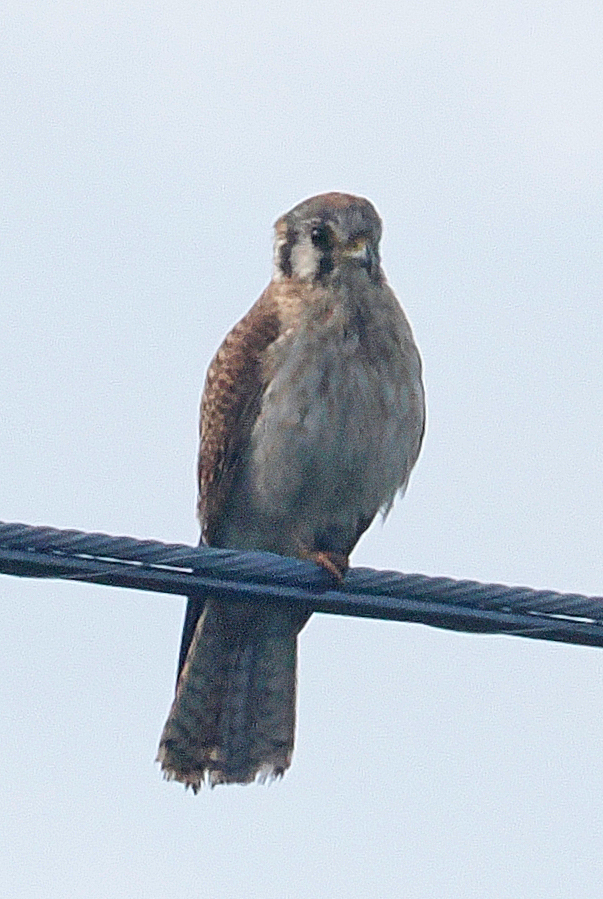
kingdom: Animalia
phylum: Chordata
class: Aves
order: Falconiformes
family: Falconidae
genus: Falco
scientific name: Falco sparverius
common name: American kestrel
